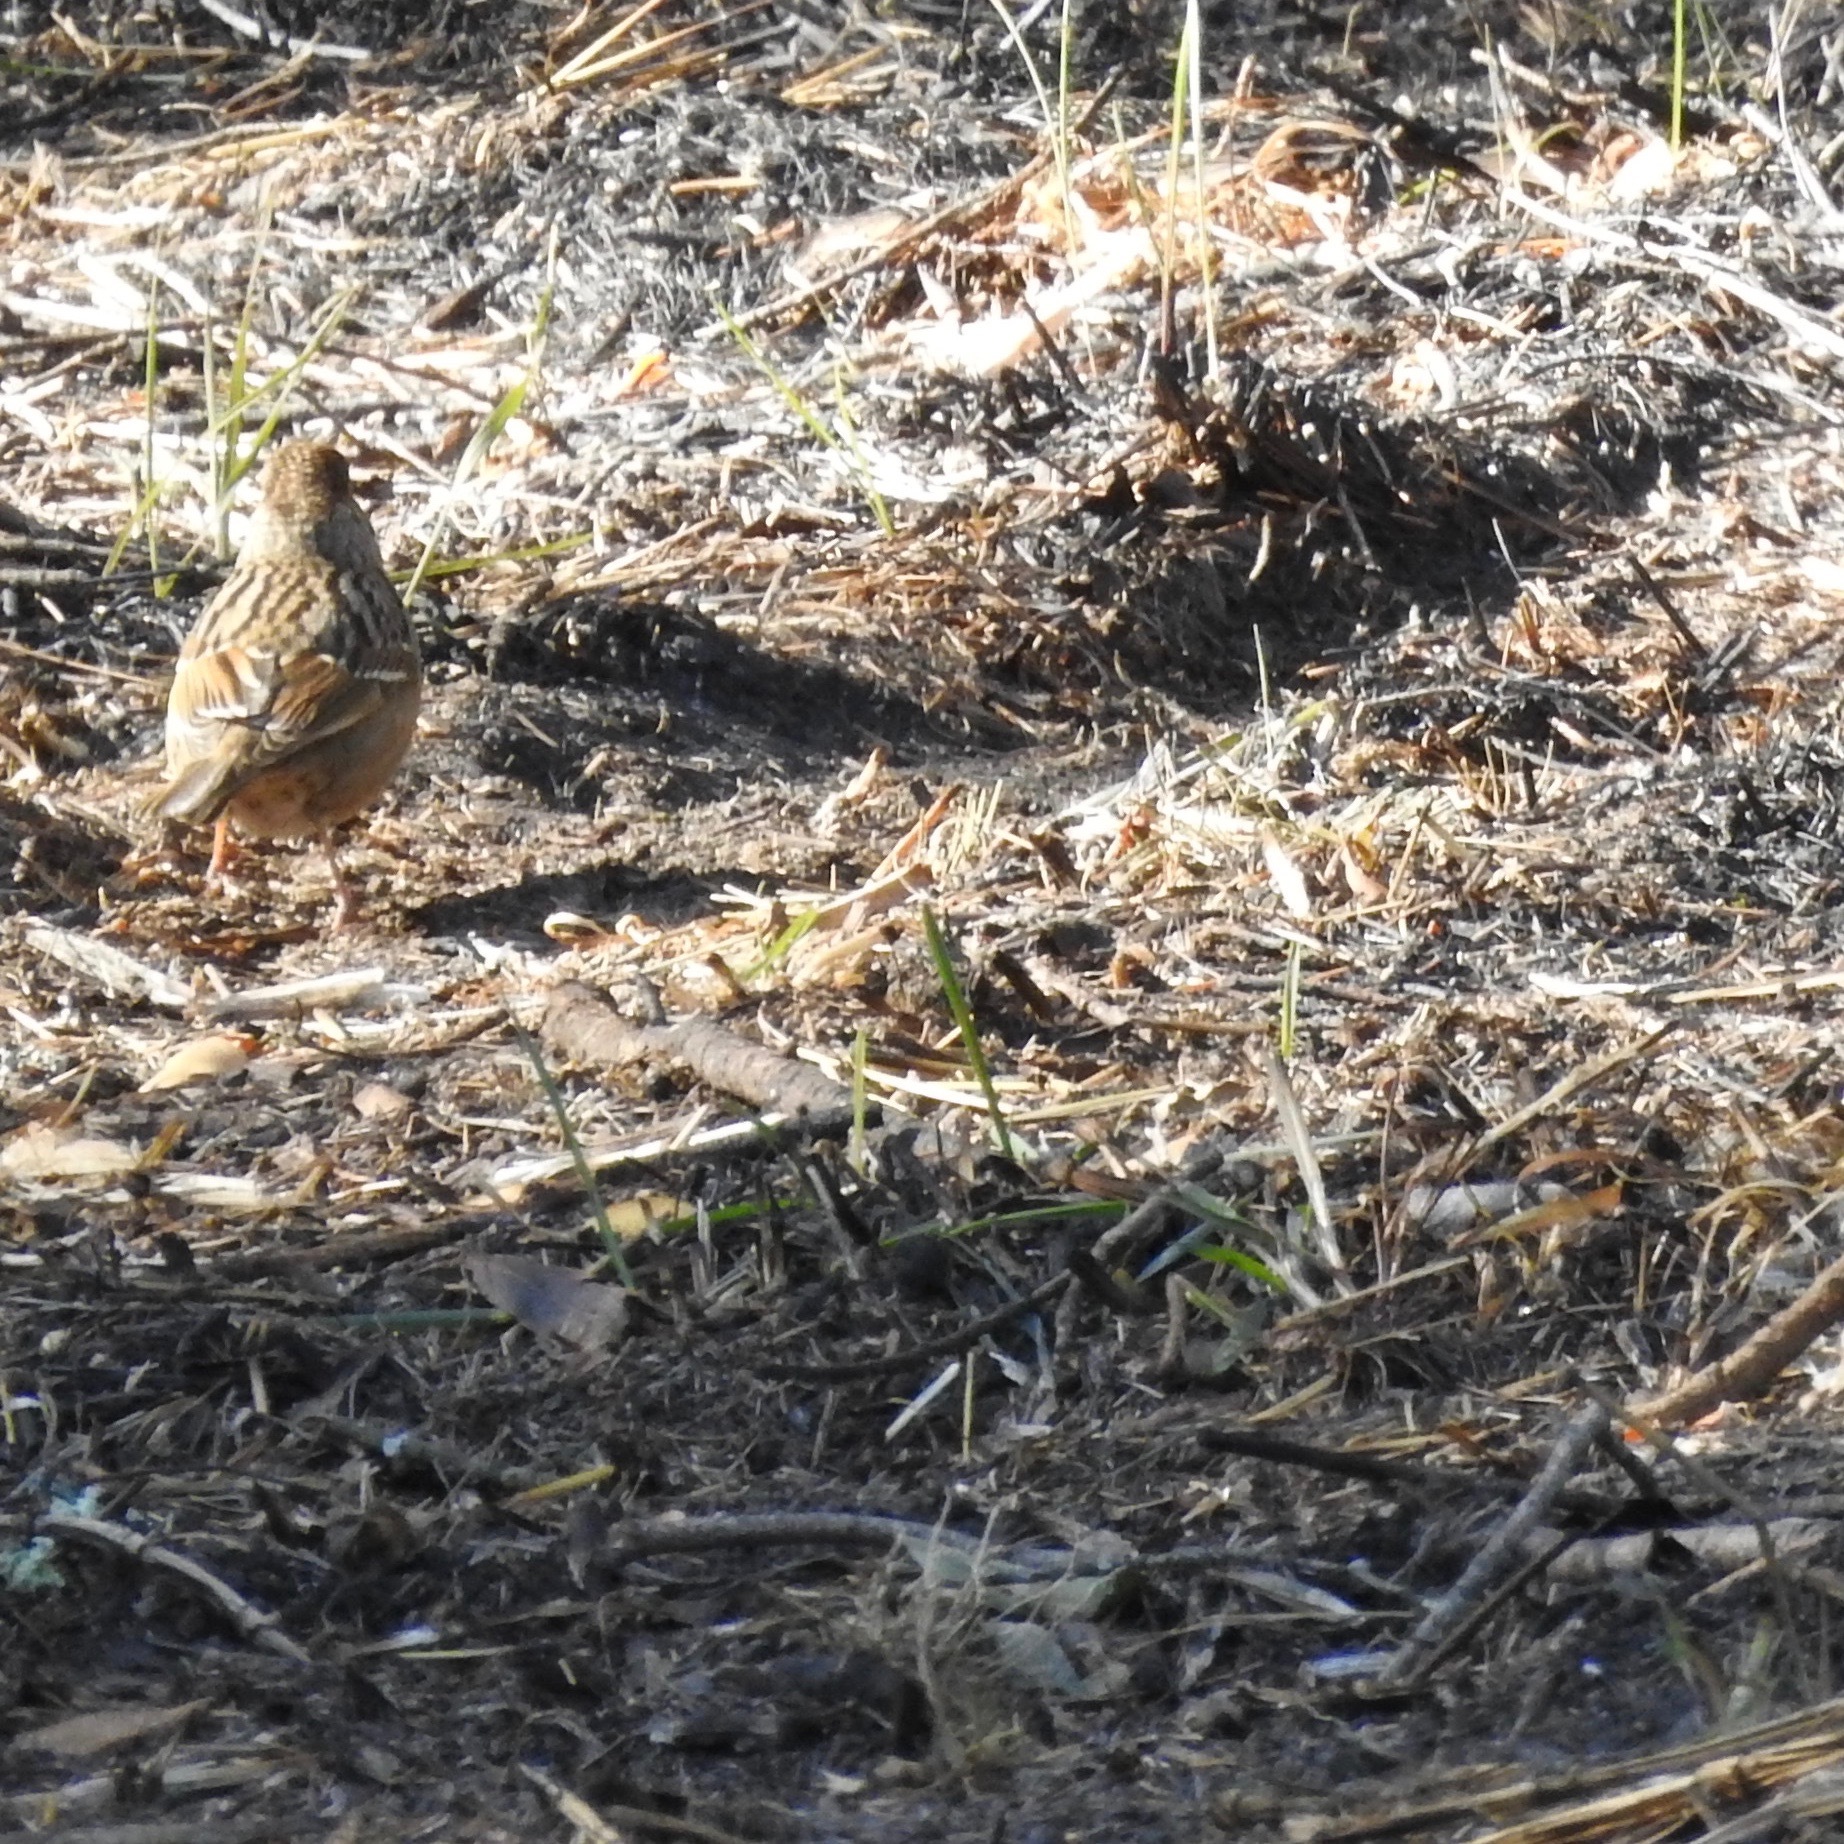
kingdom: Animalia
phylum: Chordata
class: Aves
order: Passeriformes
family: Passerellidae
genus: Zonotrichia
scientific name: Zonotrichia atricapilla
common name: Golden-crowned sparrow
